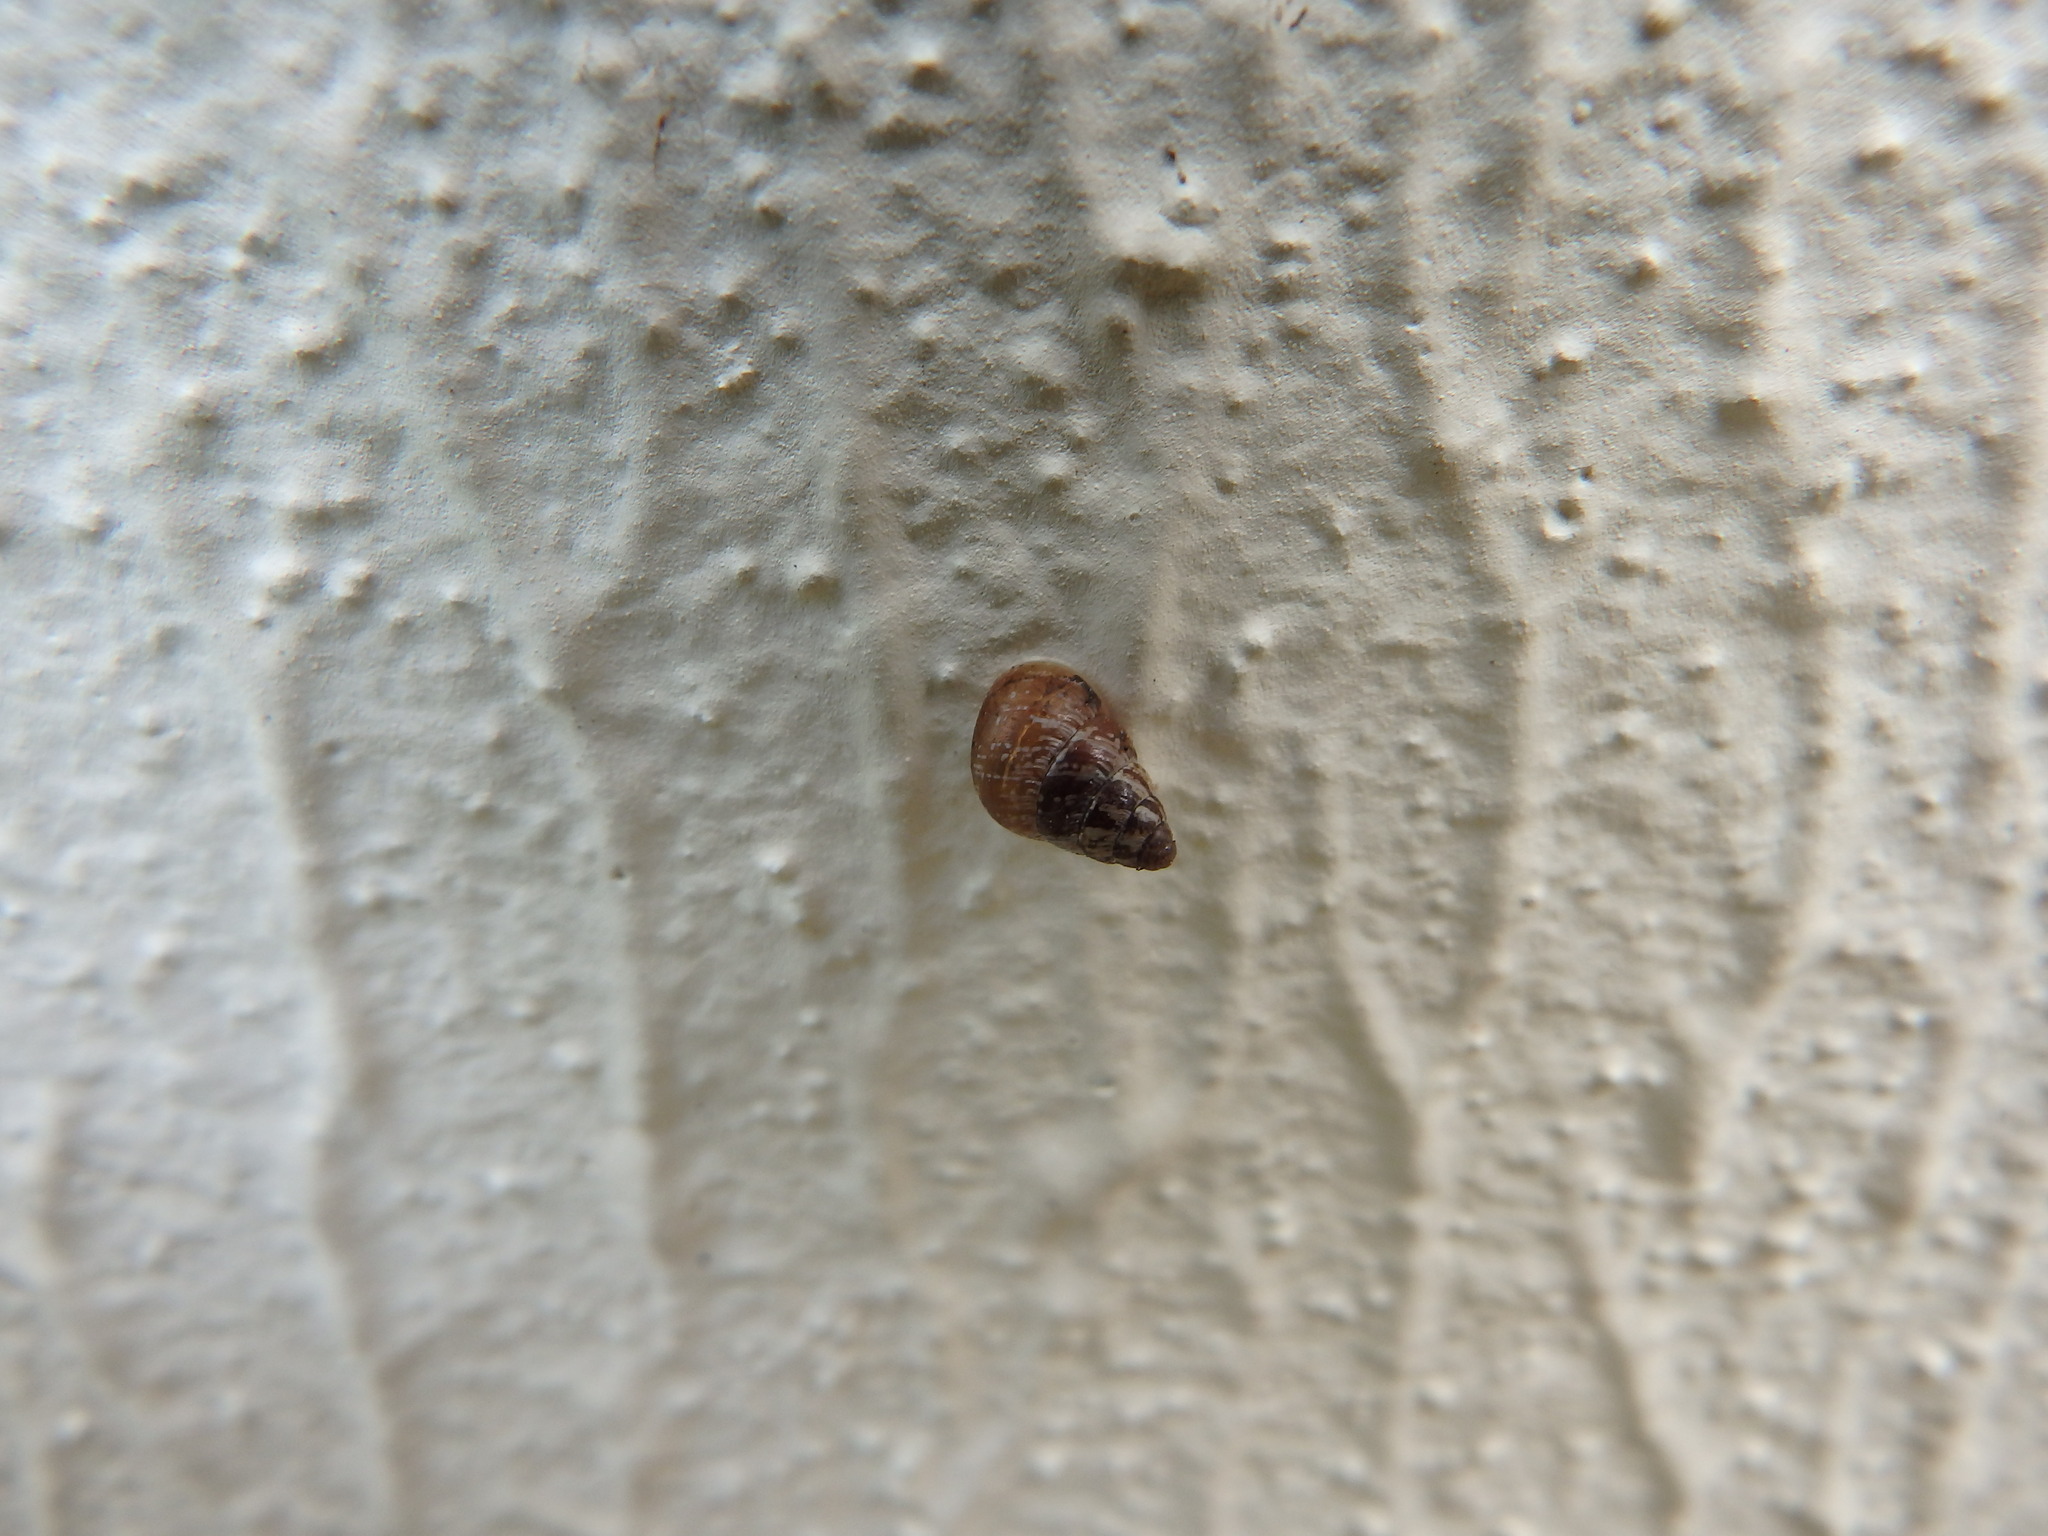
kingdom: Animalia
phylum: Mollusca
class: Gastropoda
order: Stylommatophora
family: Geomitridae
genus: Cochlicella
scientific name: Cochlicella barbara
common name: Potbellied helicellid
